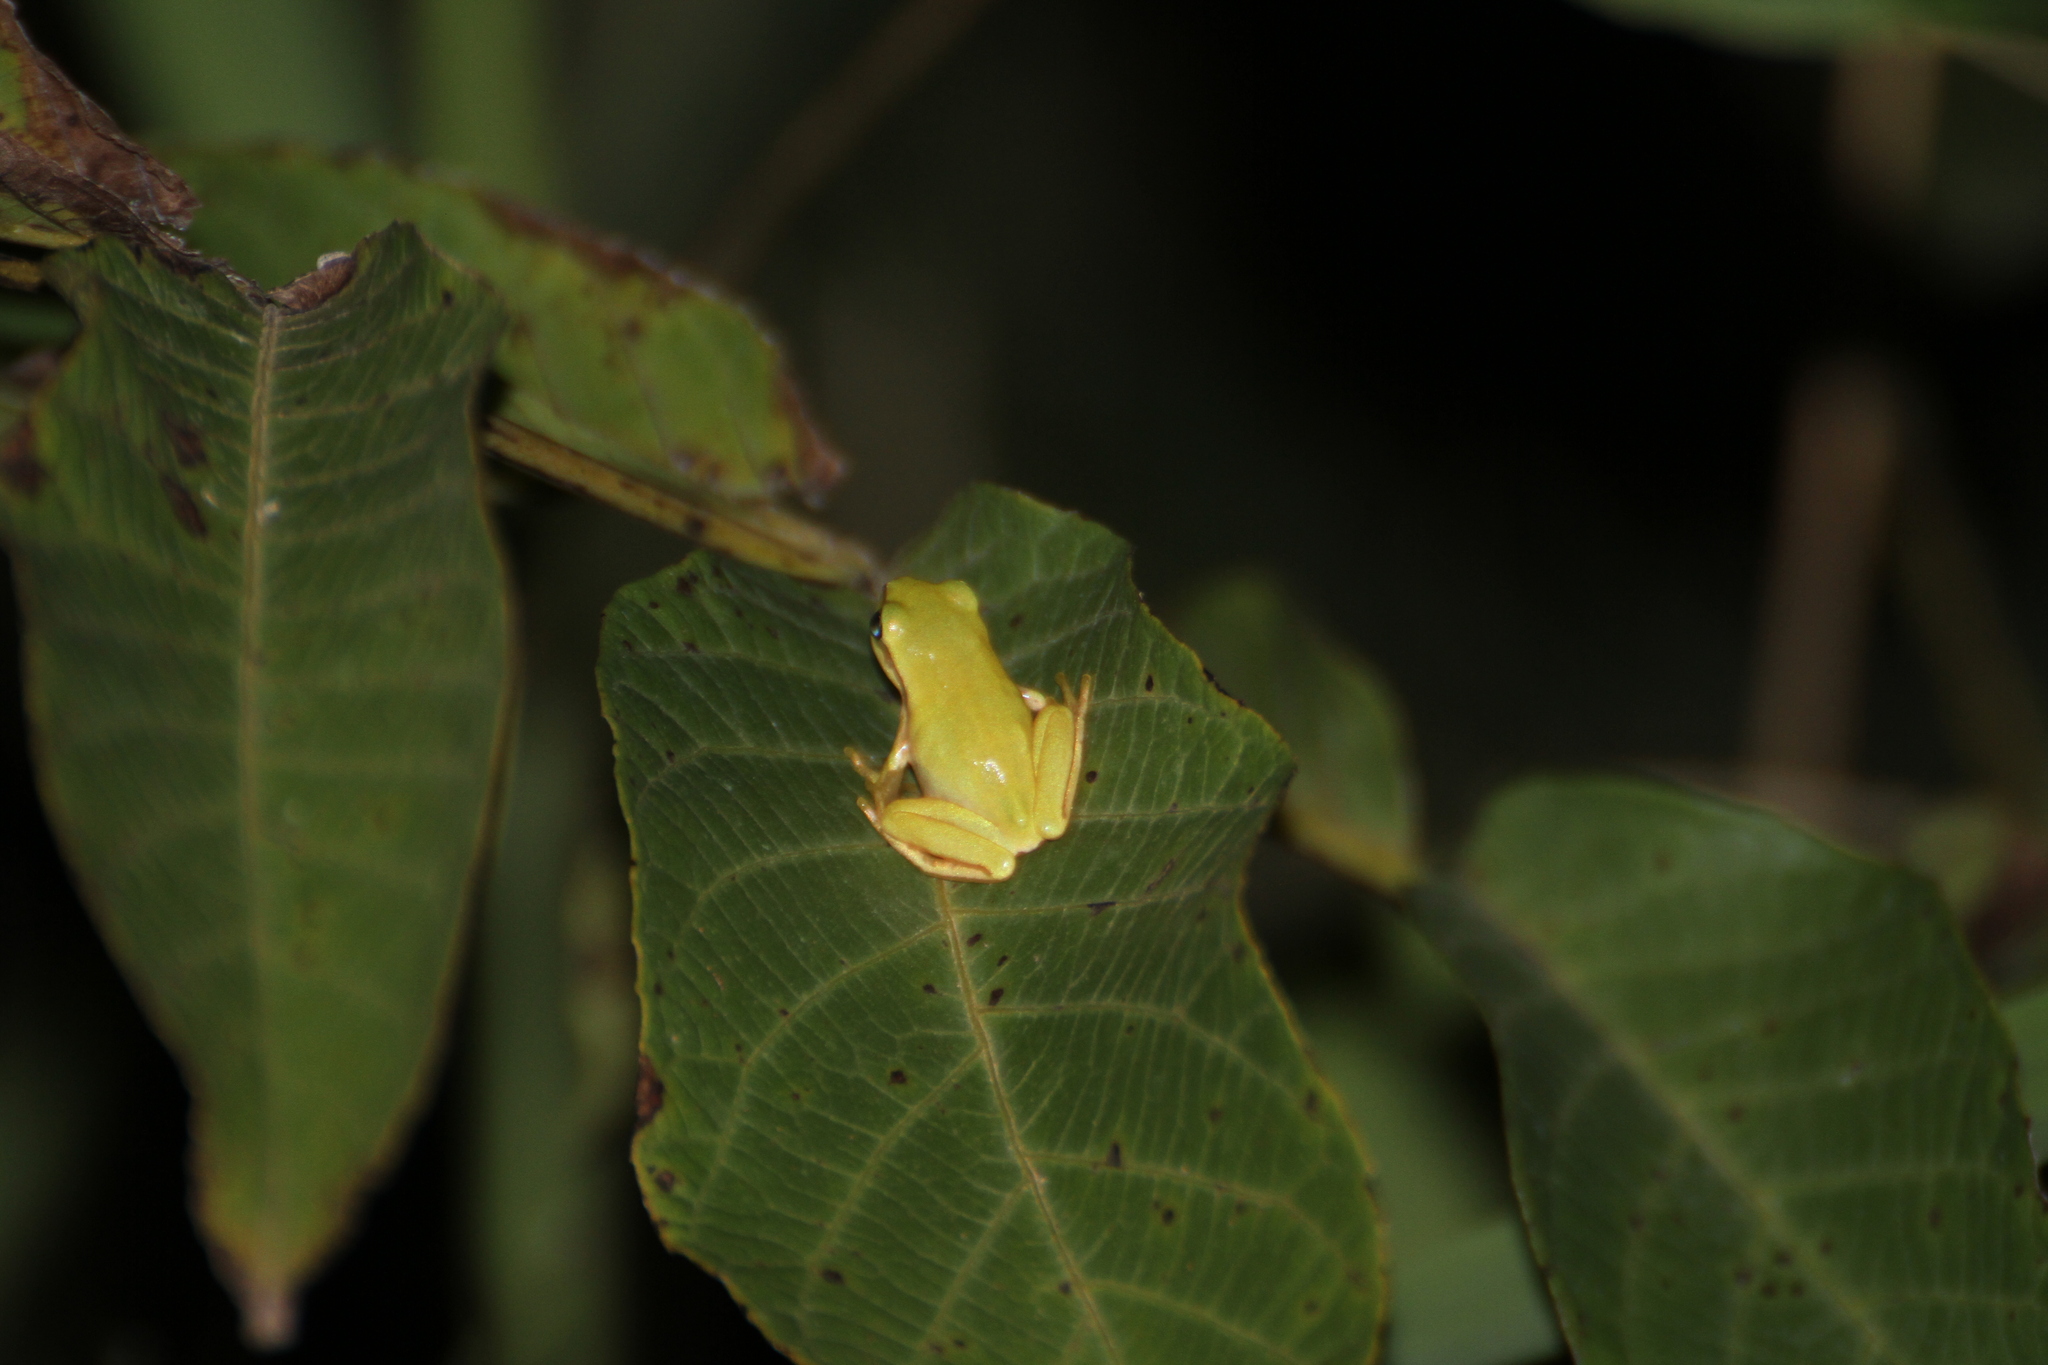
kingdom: Animalia
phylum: Chordata
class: Amphibia
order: Anura
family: Hylidae
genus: Hyla
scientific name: Hyla meridionalis
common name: Stripeless tree frog
